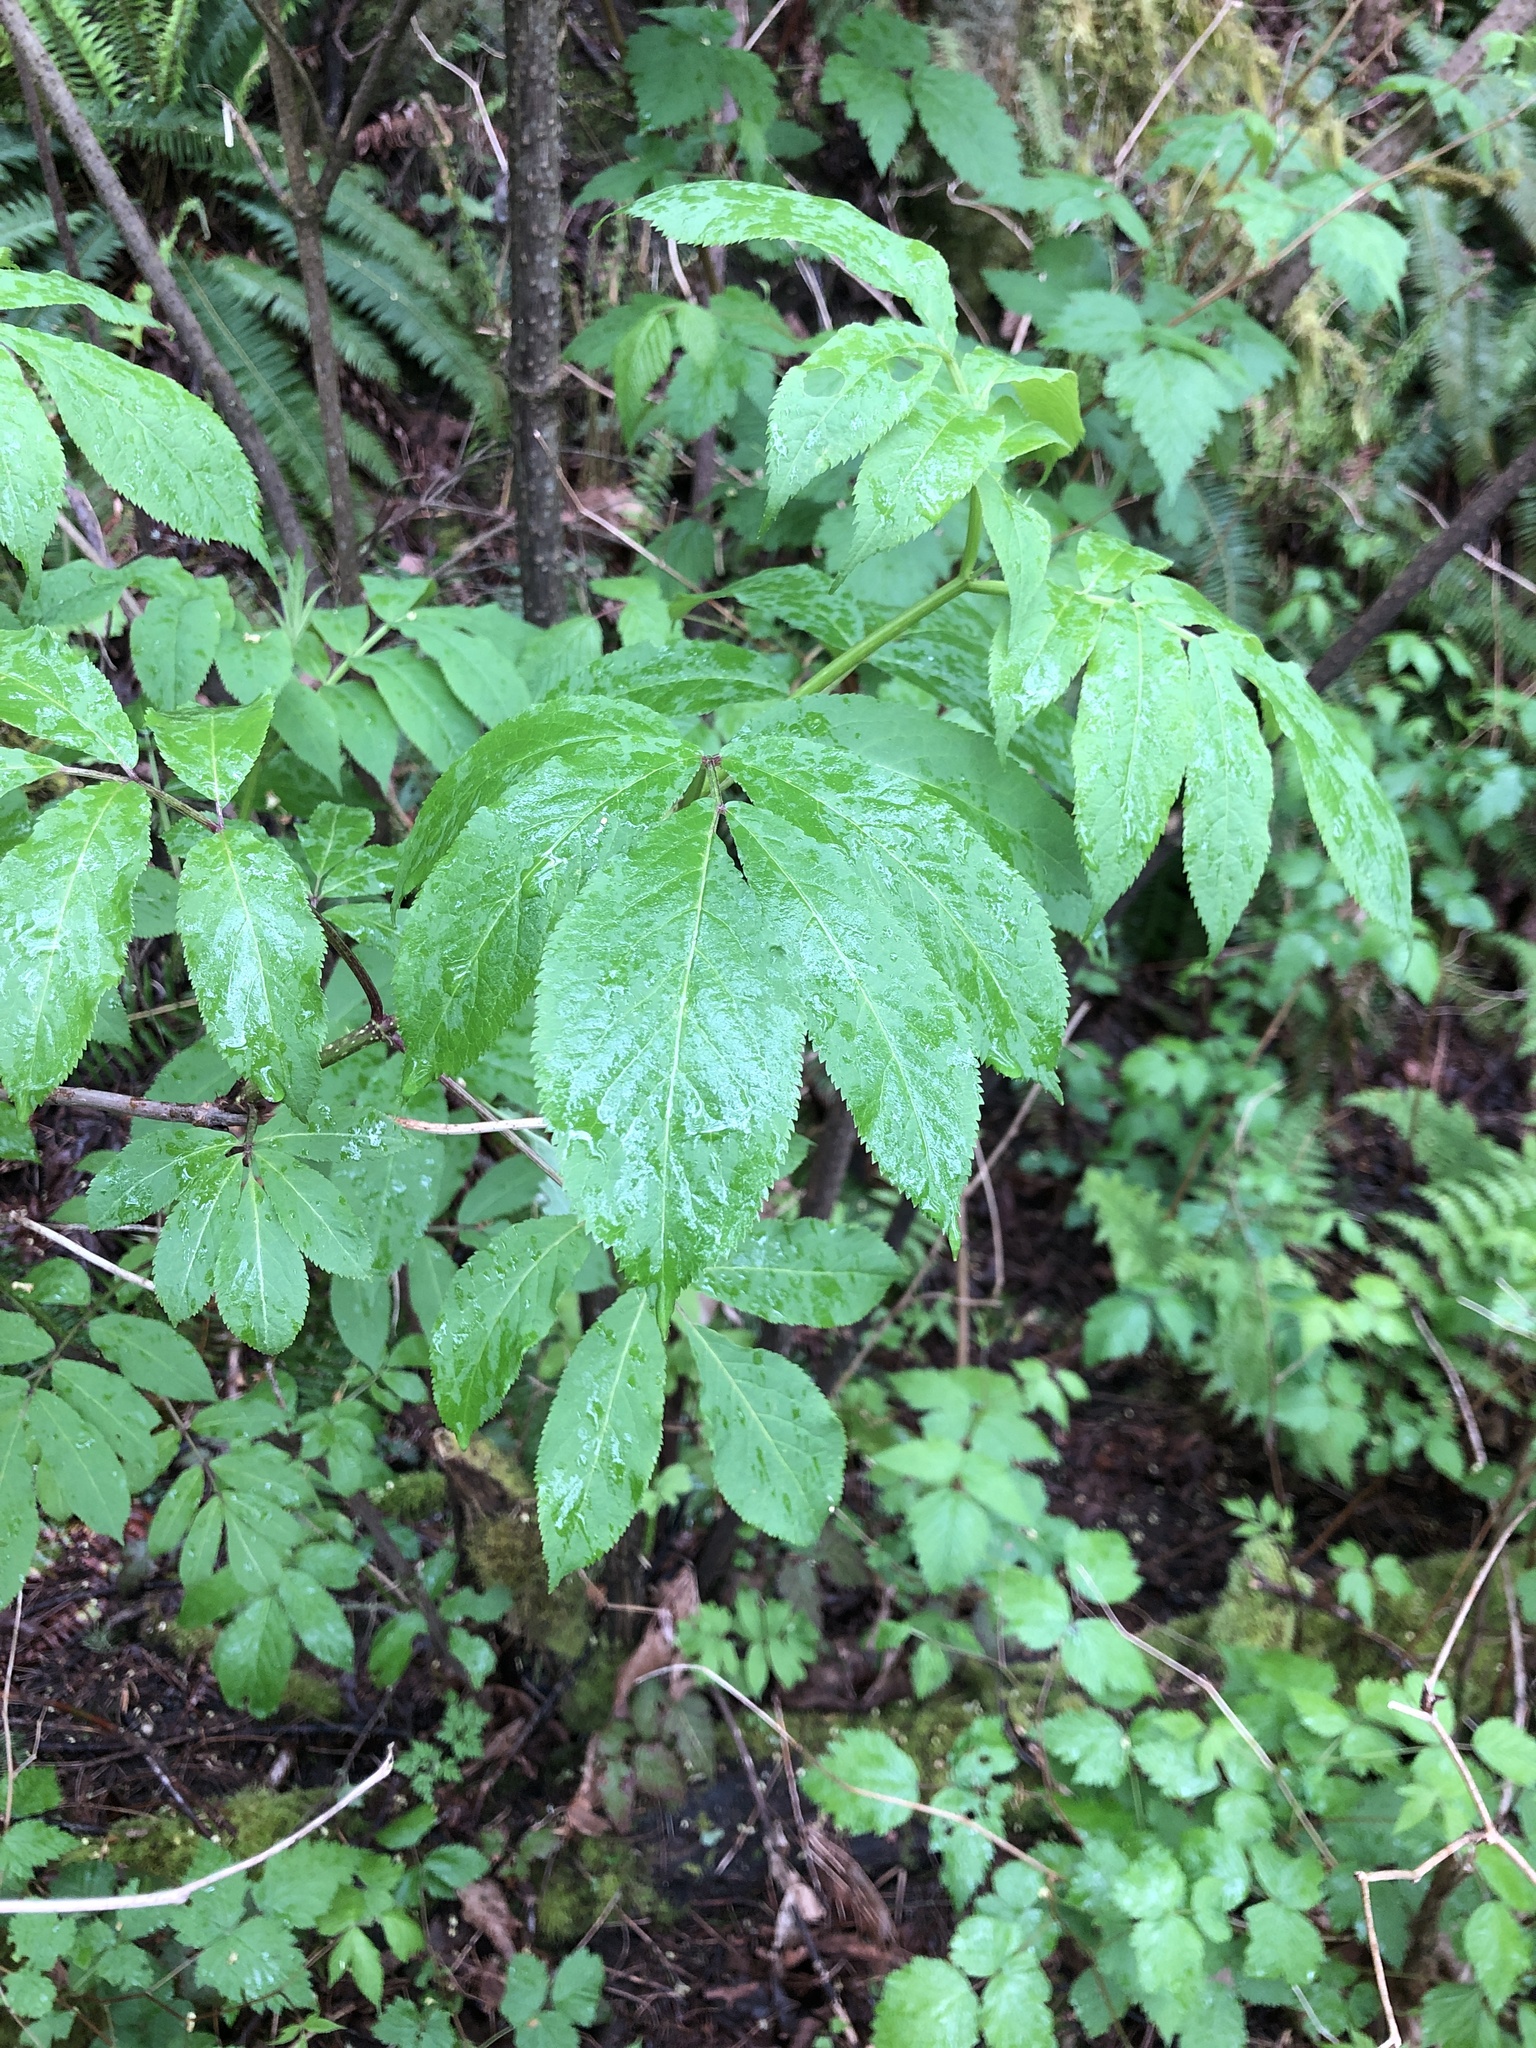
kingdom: Plantae
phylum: Tracheophyta
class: Magnoliopsida
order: Dipsacales
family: Viburnaceae
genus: Sambucus
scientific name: Sambucus racemosa
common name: Red-berried elder
